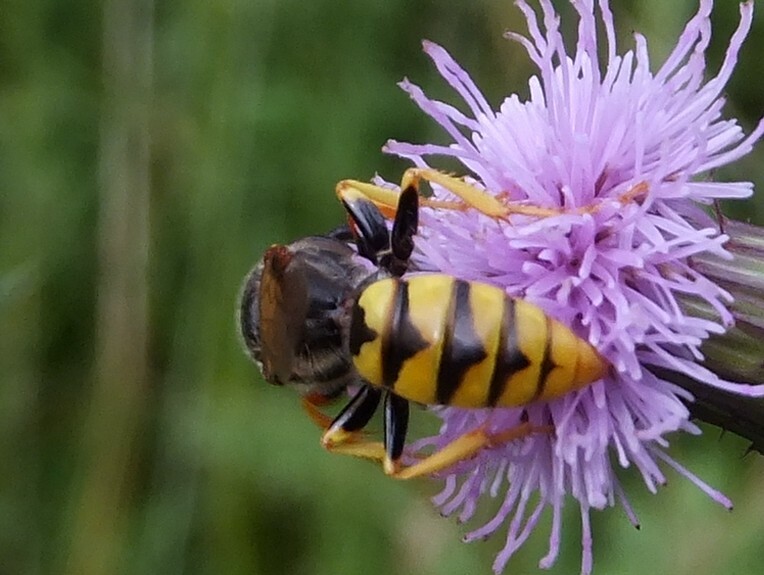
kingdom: Animalia
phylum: Arthropoda
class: Insecta
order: Hymenoptera
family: Crabronidae
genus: Philanthus
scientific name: Philanthus triangulum
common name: Bee wolf
